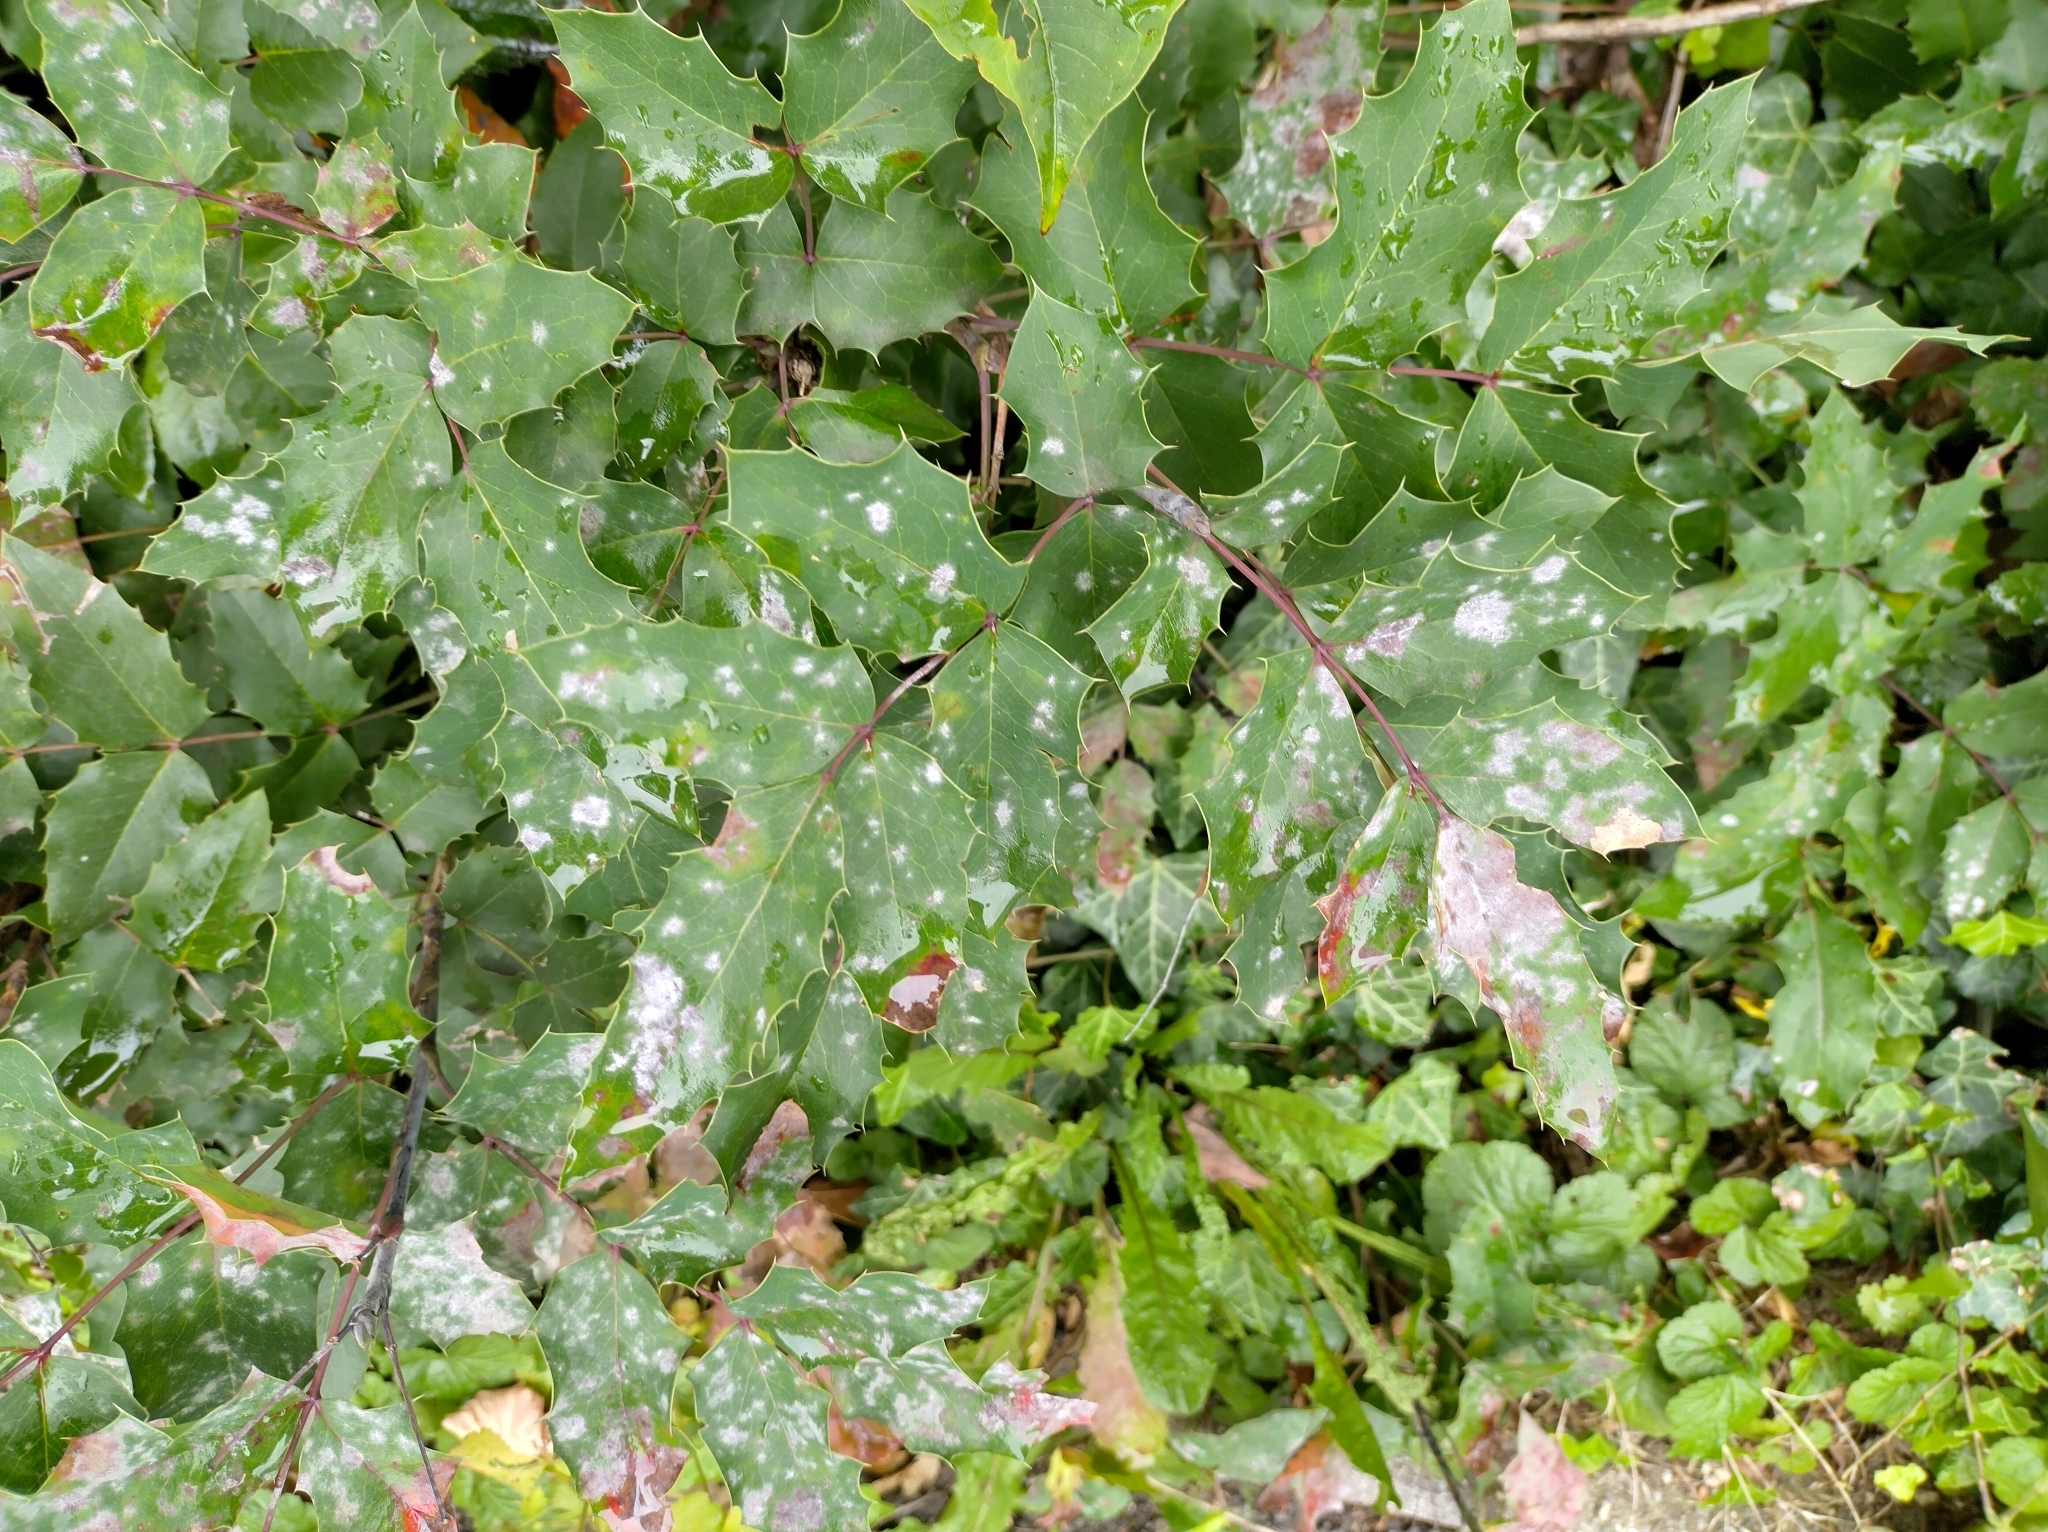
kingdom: Fungi
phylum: Ascomycota
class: Leotiomycetes
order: Helotiales
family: Erysiphaceae
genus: Erysiphe
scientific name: Erysiphe berberidis
